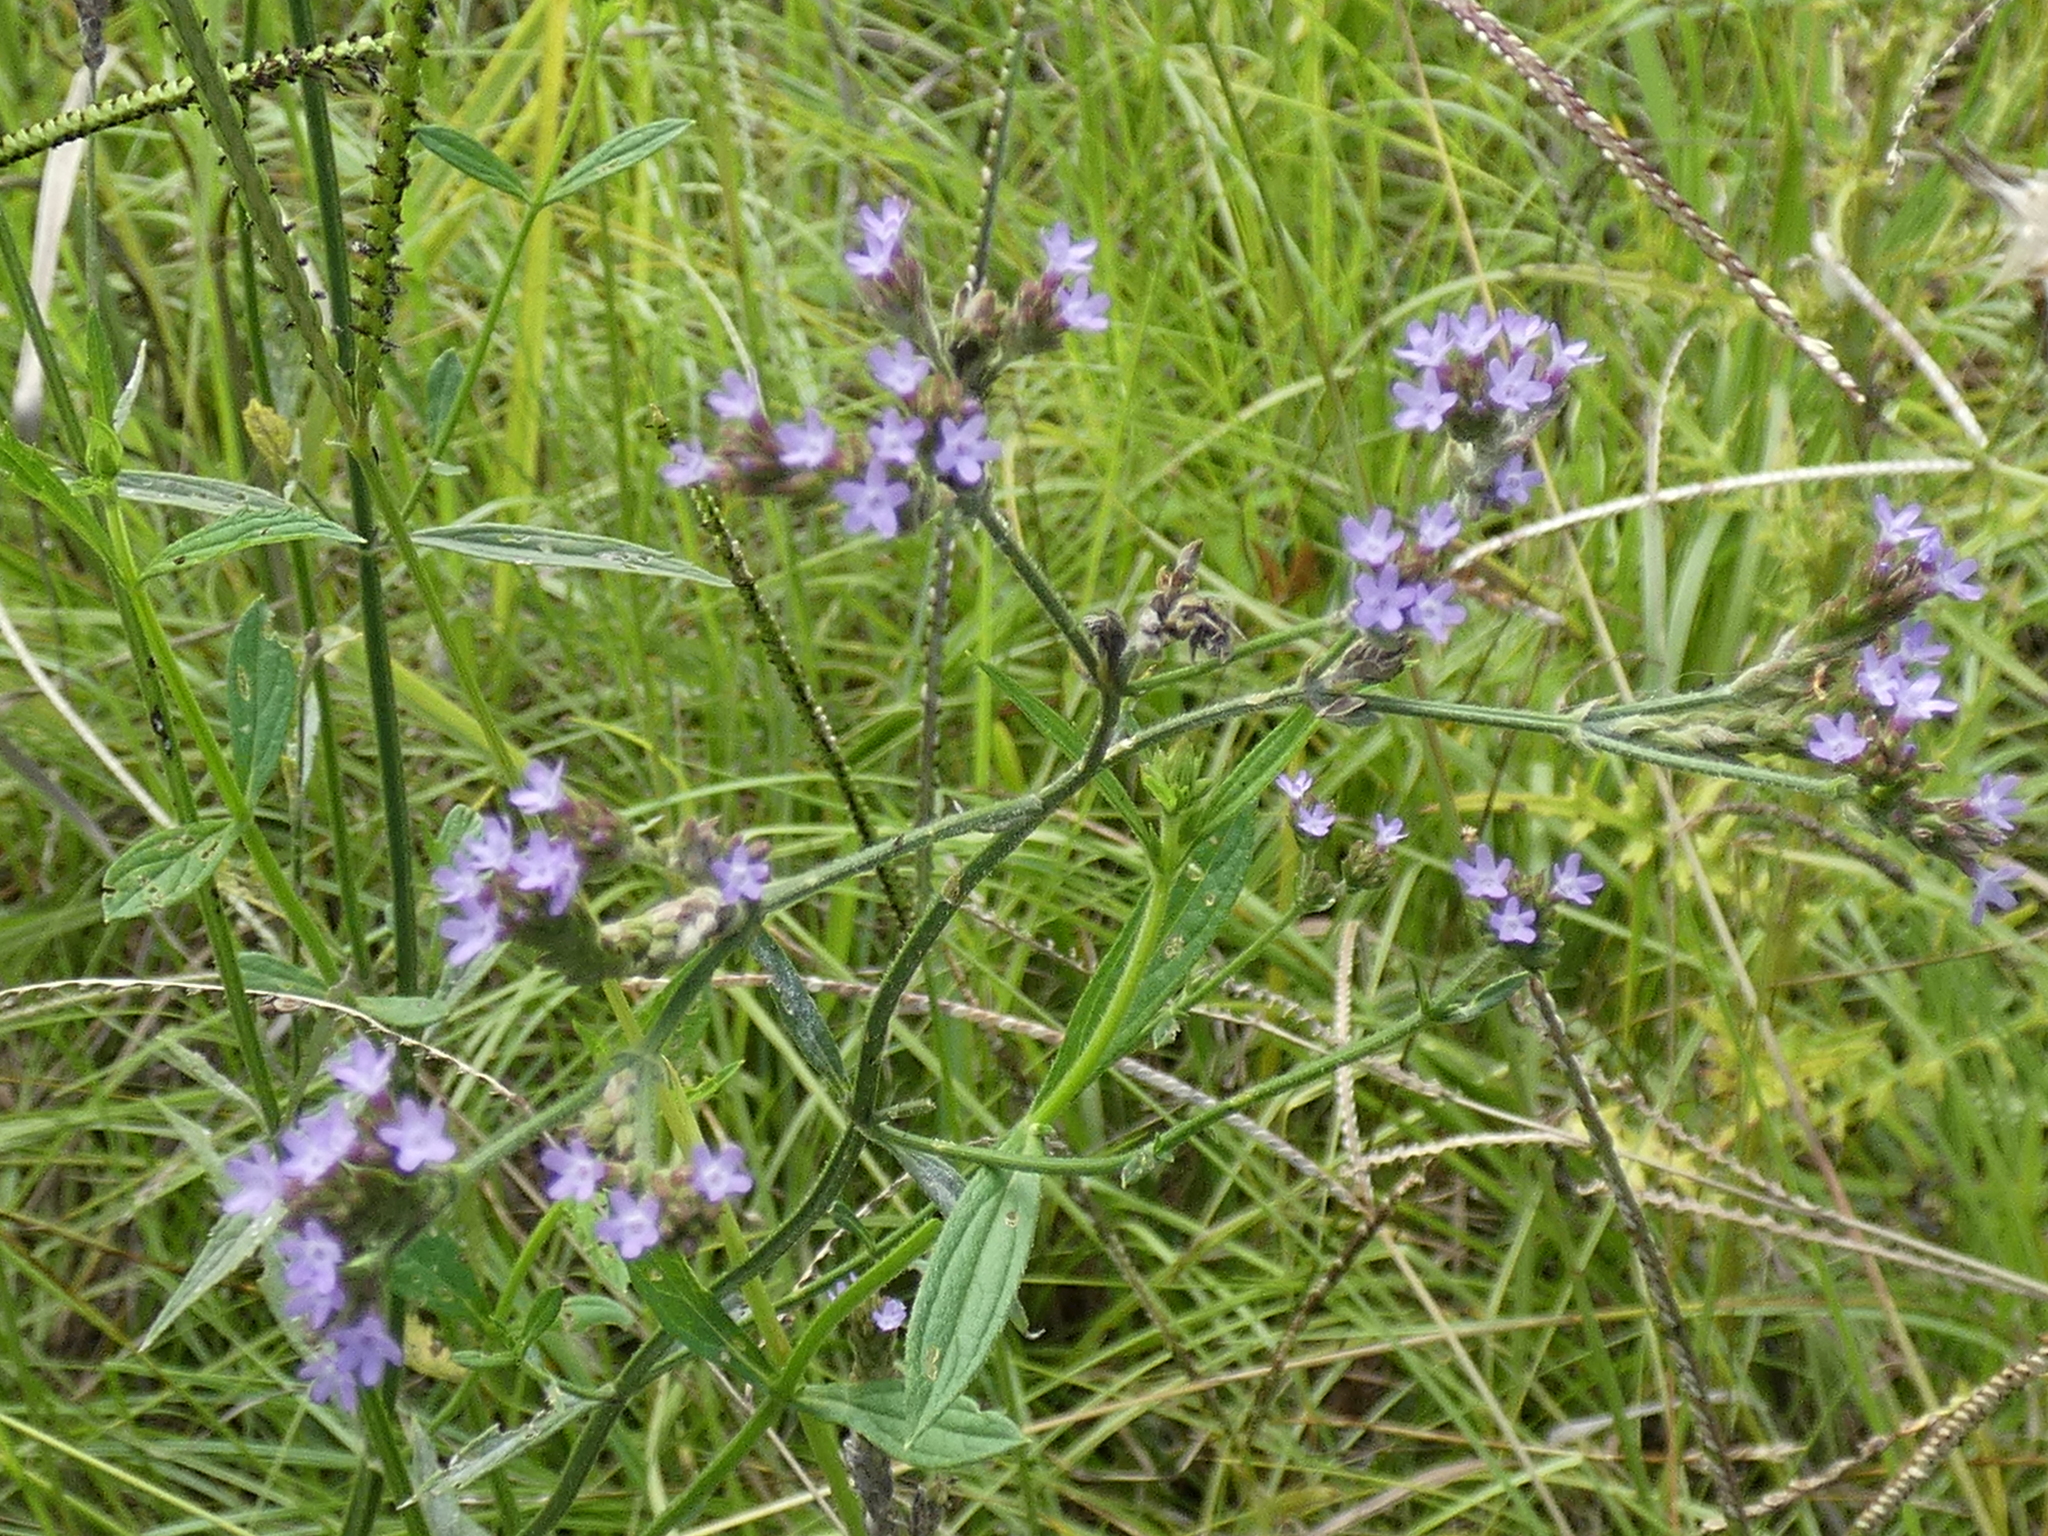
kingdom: Plantae
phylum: Tracheophyta
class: Magnoliopsida
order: Lamiales
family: Verbenaceae
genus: Verbena
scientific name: Verbena brasiliensis
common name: Brazilian vervain
